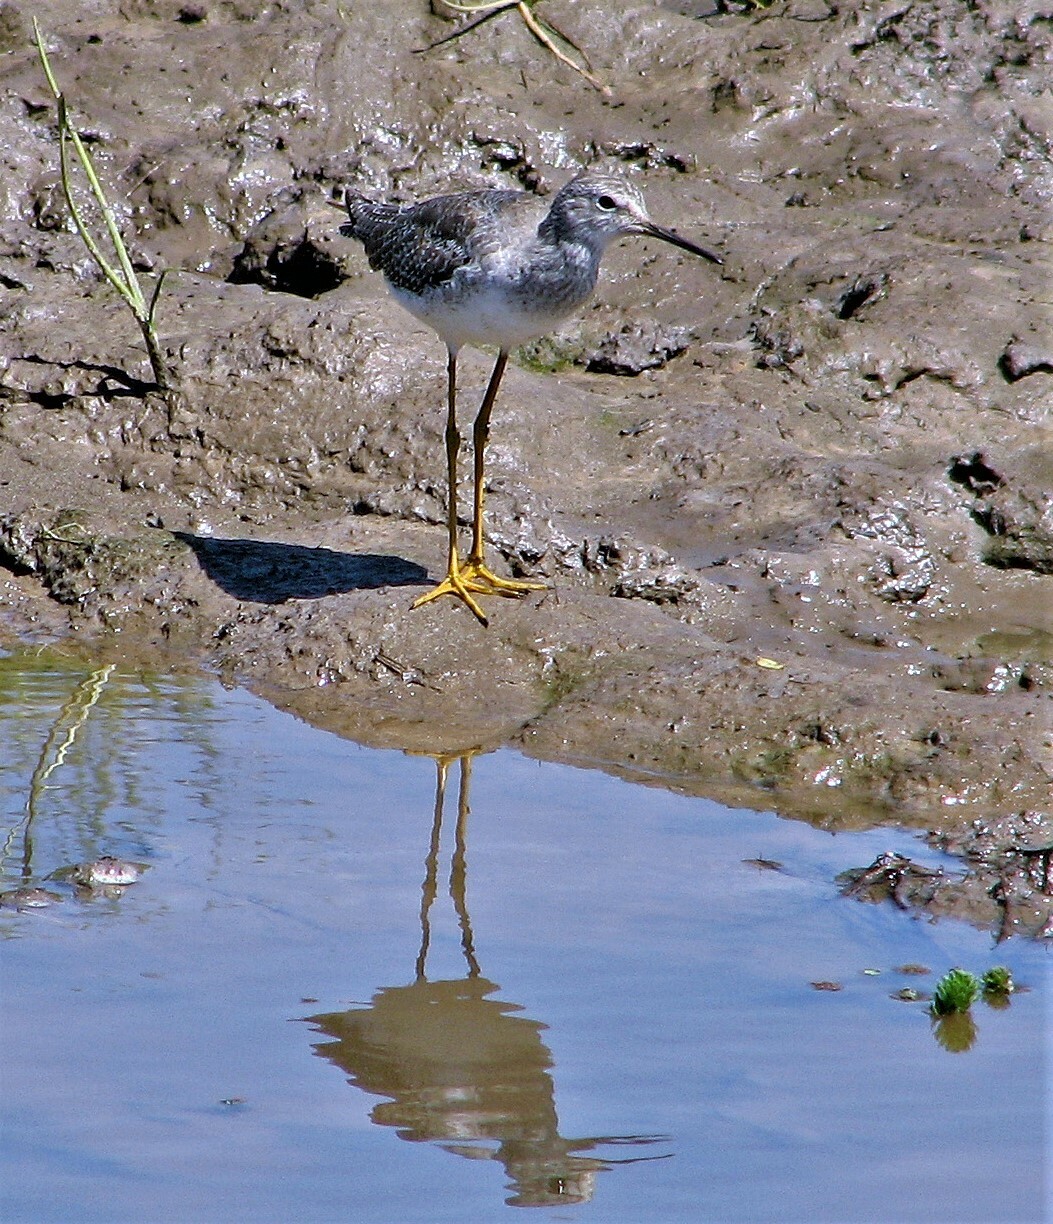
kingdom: Animalia
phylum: Chordata
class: Aves
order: Charadriiformes
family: Scolopacidae
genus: Tringa
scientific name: Tringa flavipes
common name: Lesser yellowlegs
